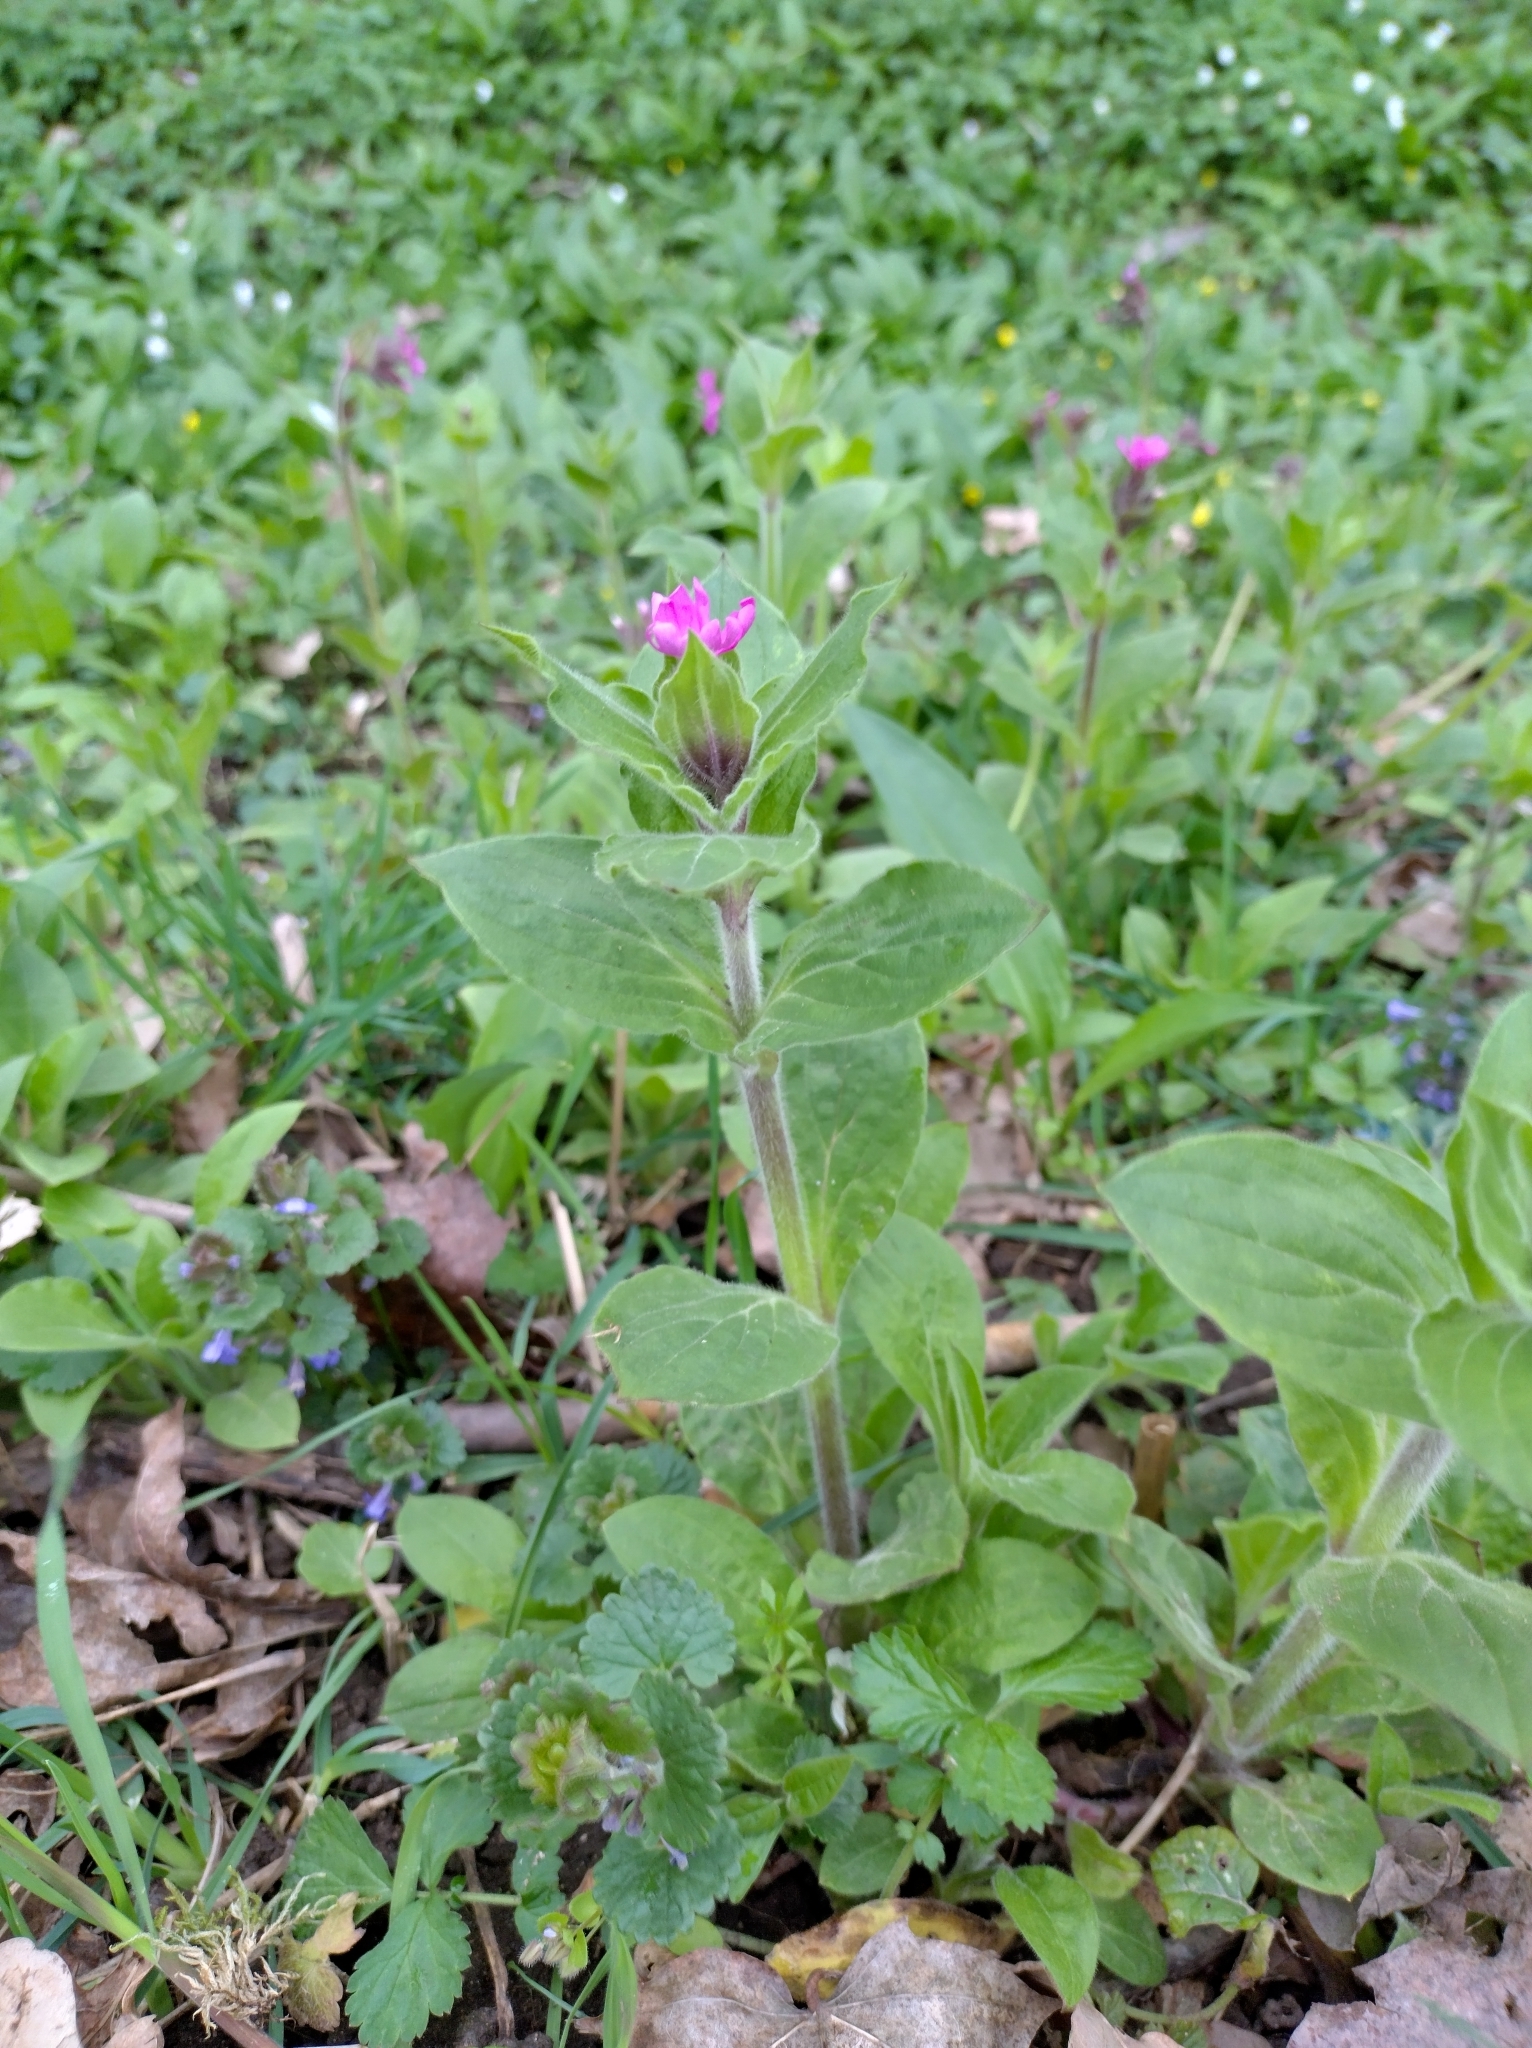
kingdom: Plantae
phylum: Tracheophyta
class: Magnoliopsida
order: Caryophyllales
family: Caryophyllaceae
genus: Silene
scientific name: Silene dioica
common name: Red campion
